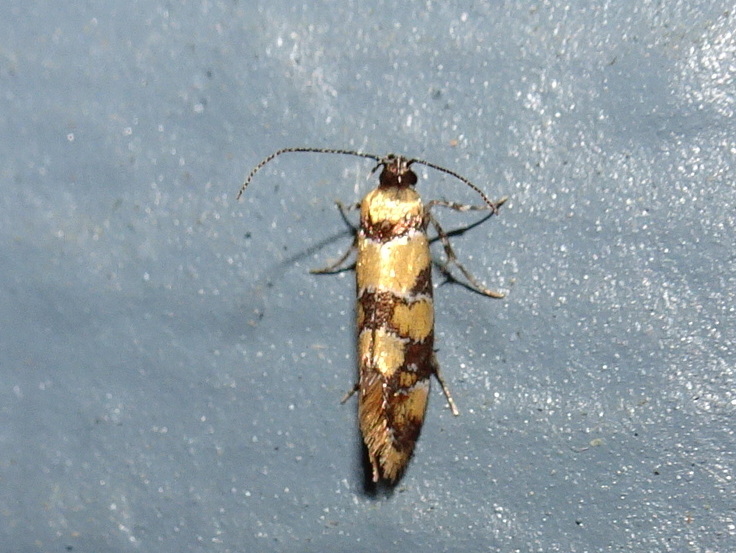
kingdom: Animalia
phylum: Arthropoda
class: Insecta
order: Lepidoptera
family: Oecophoridae
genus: Decantha
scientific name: Decantha borkhausenii
